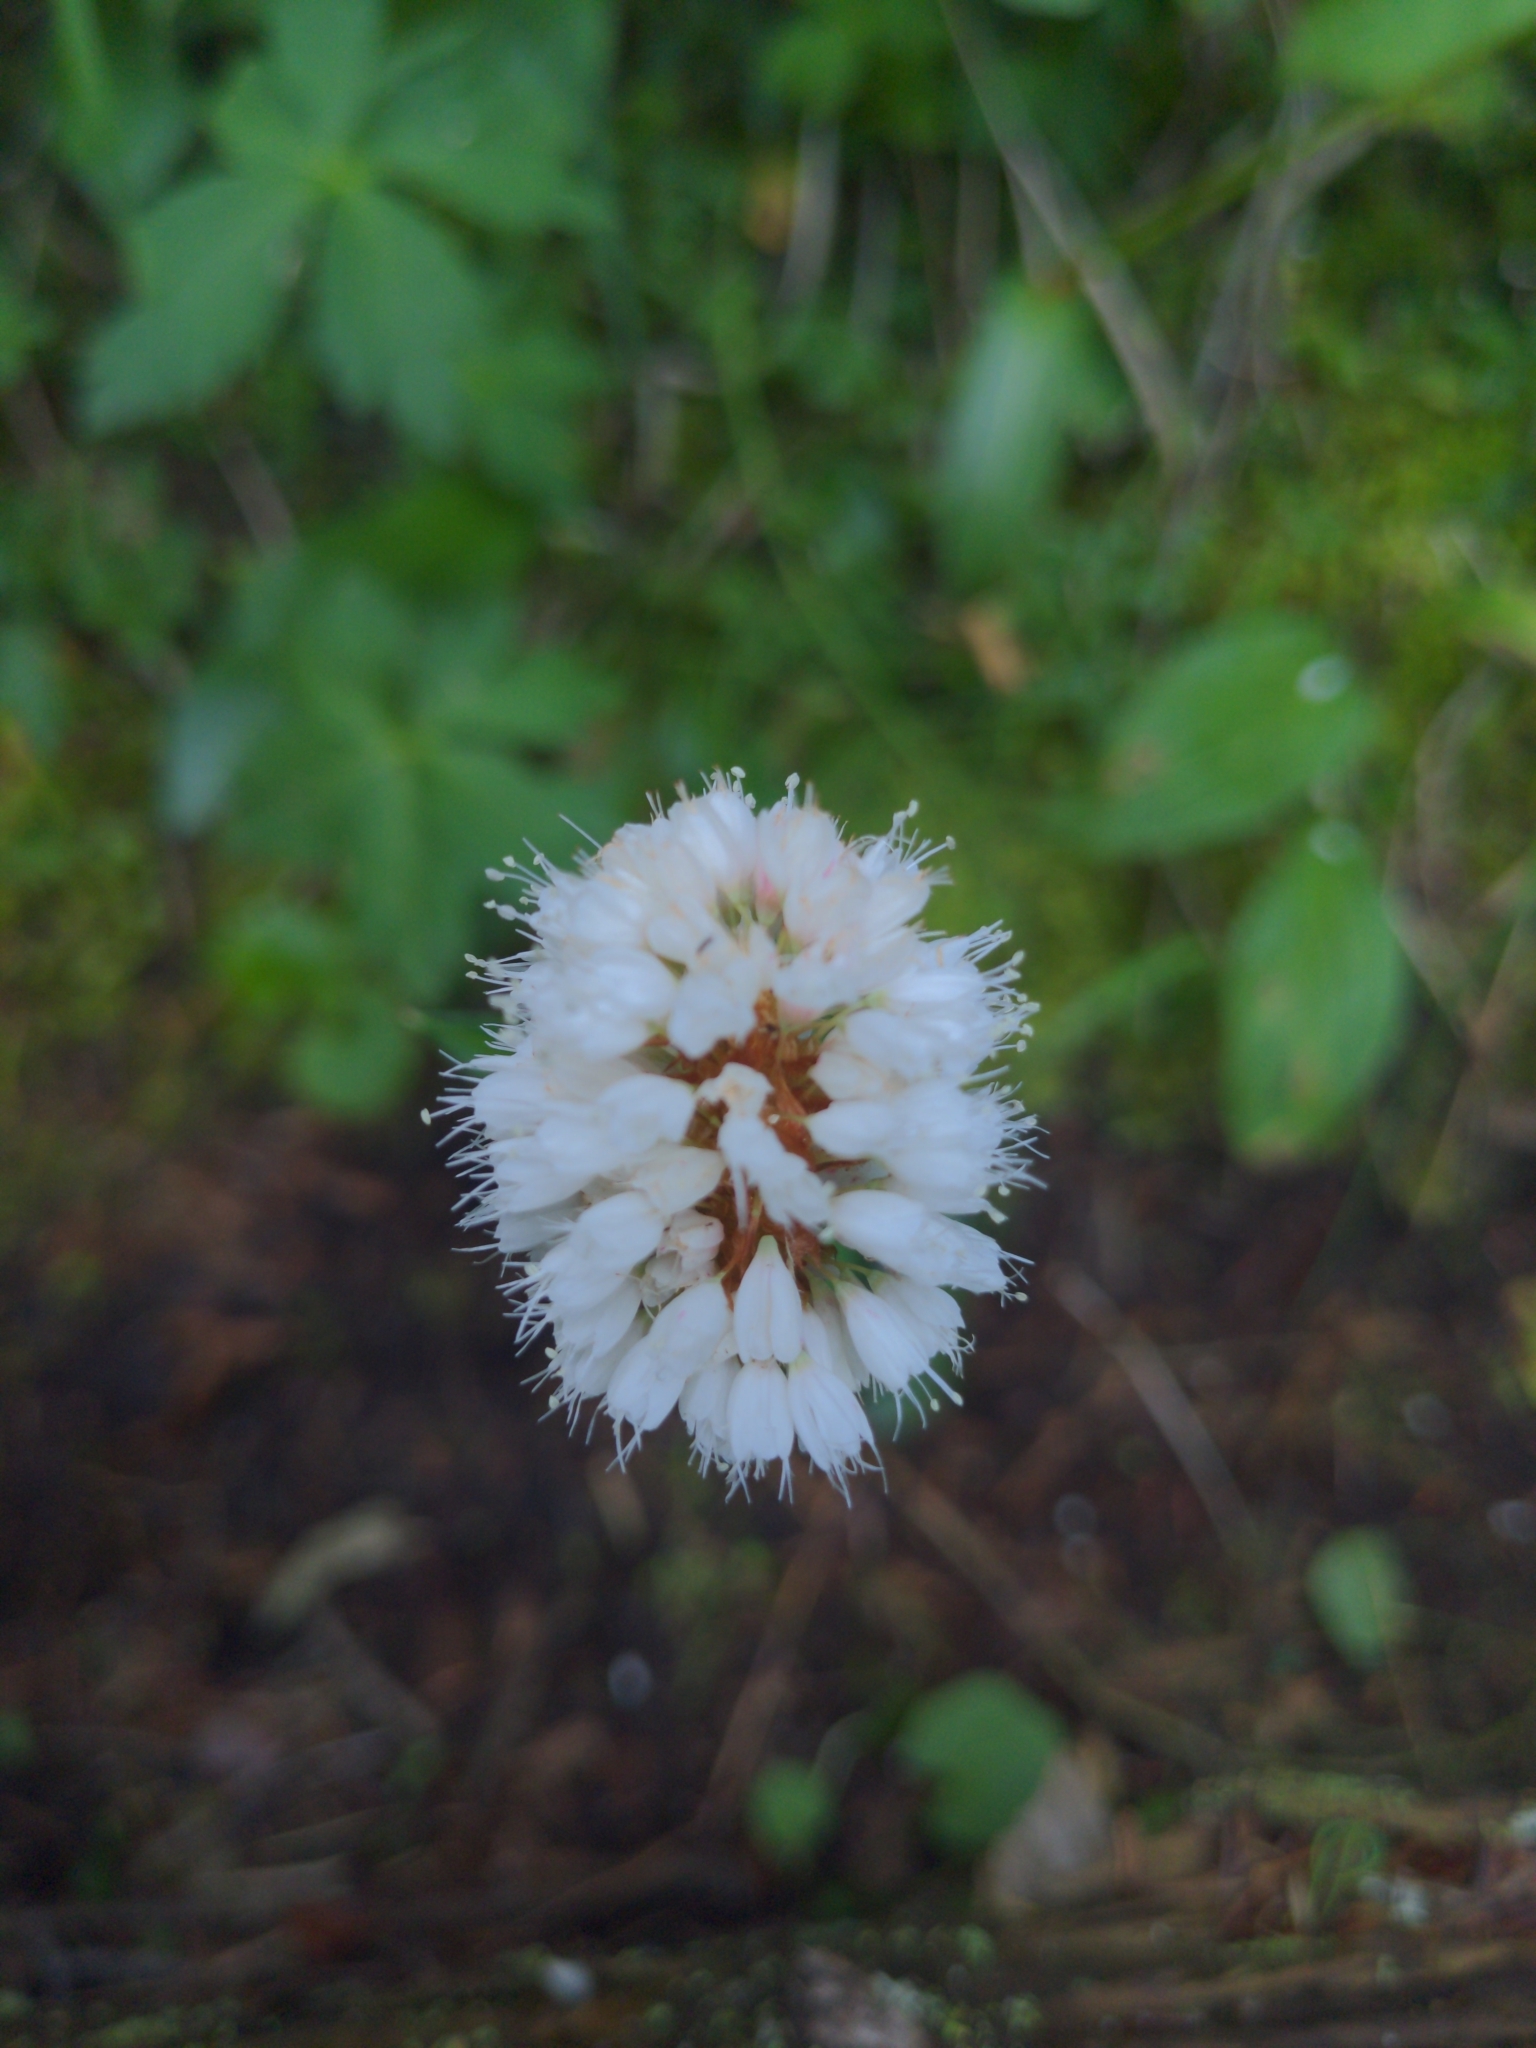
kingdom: Plantae
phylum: Tracheophyta
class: Magnoliopsida
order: Caryophyllales
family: Polygonaceae
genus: Bistorta
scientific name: Bistorta bistortoides
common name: American bistort
